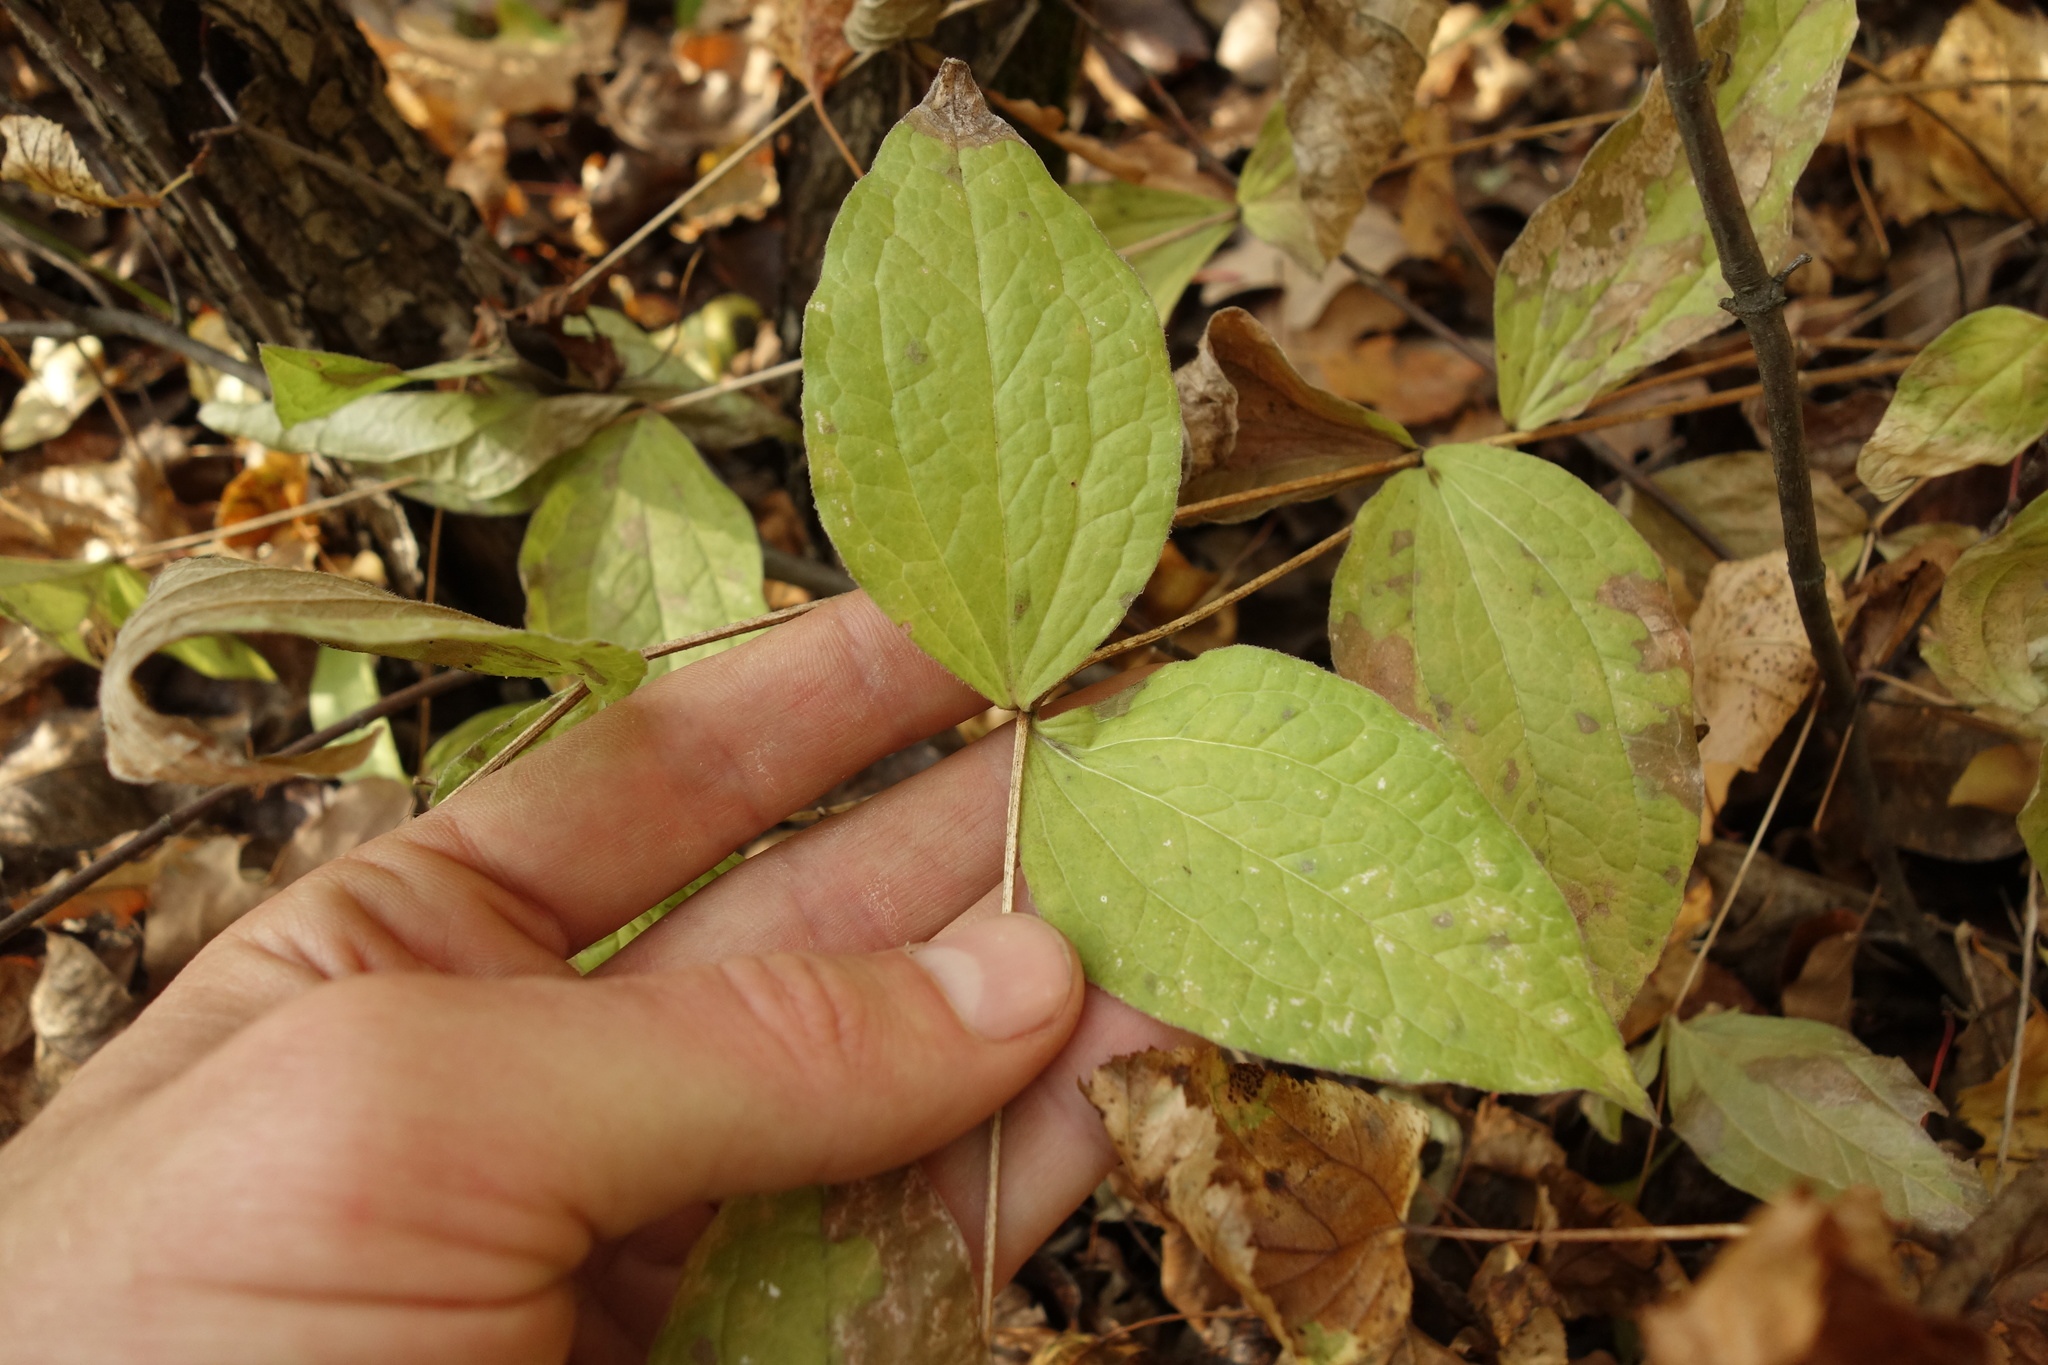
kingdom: Plantae
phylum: Tracheophyta
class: Magnoliopsida
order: Ranunculales
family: Ranunculaceae
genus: Clematis
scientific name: Clematis integrifolia
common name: Solitary clematis
